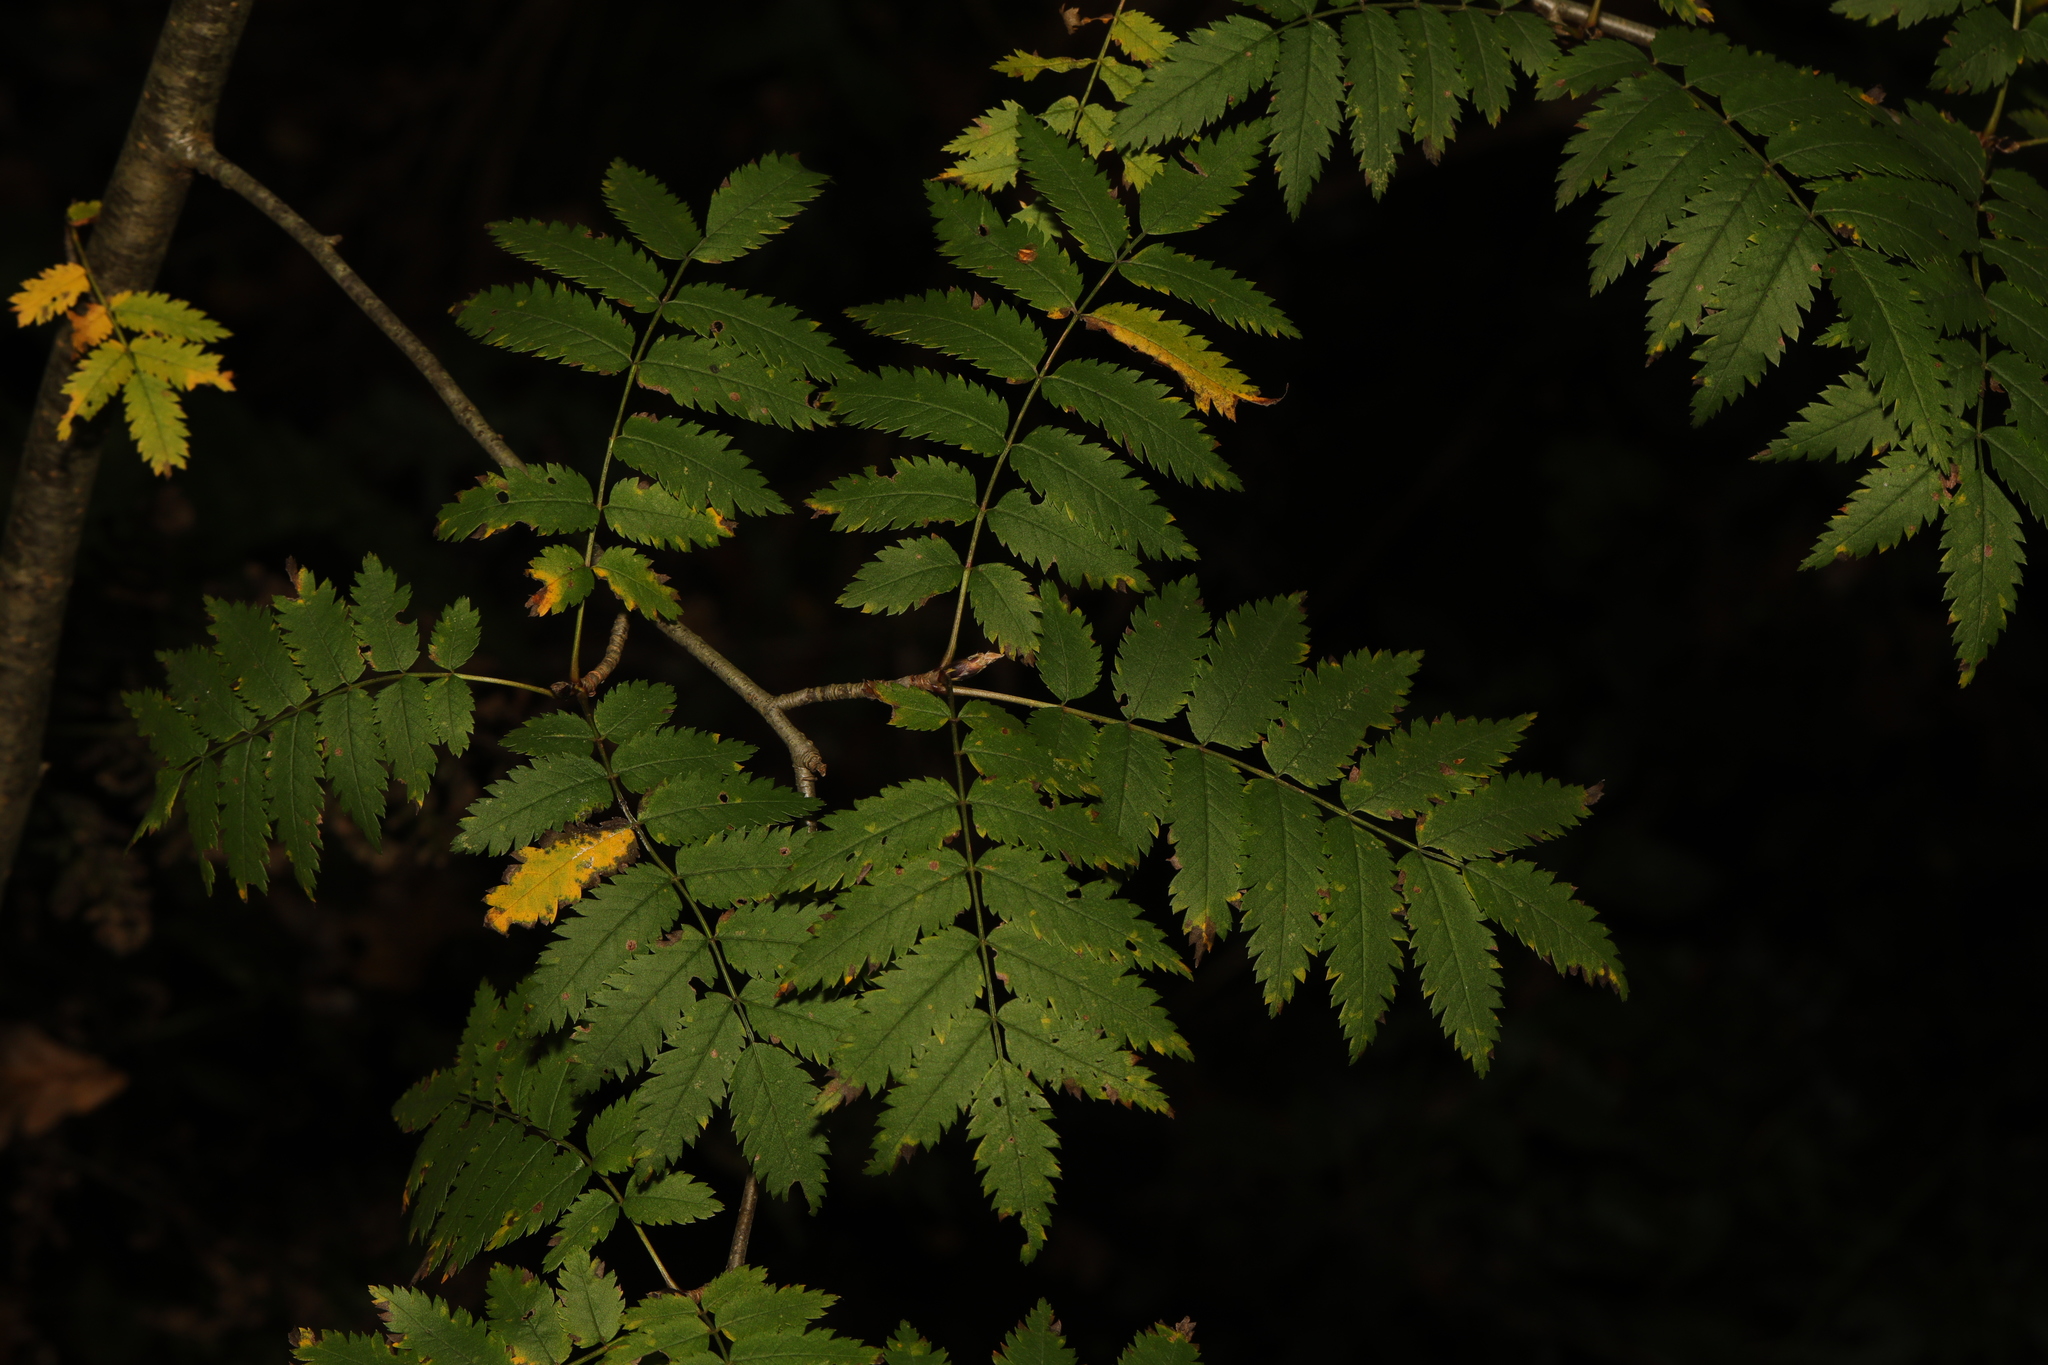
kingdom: Plantae
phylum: Tracheophyta
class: Magnoliopsida
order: Rosales
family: Rosaceae
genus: Sorbus
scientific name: Sorbus aucuparia
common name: Rowan
